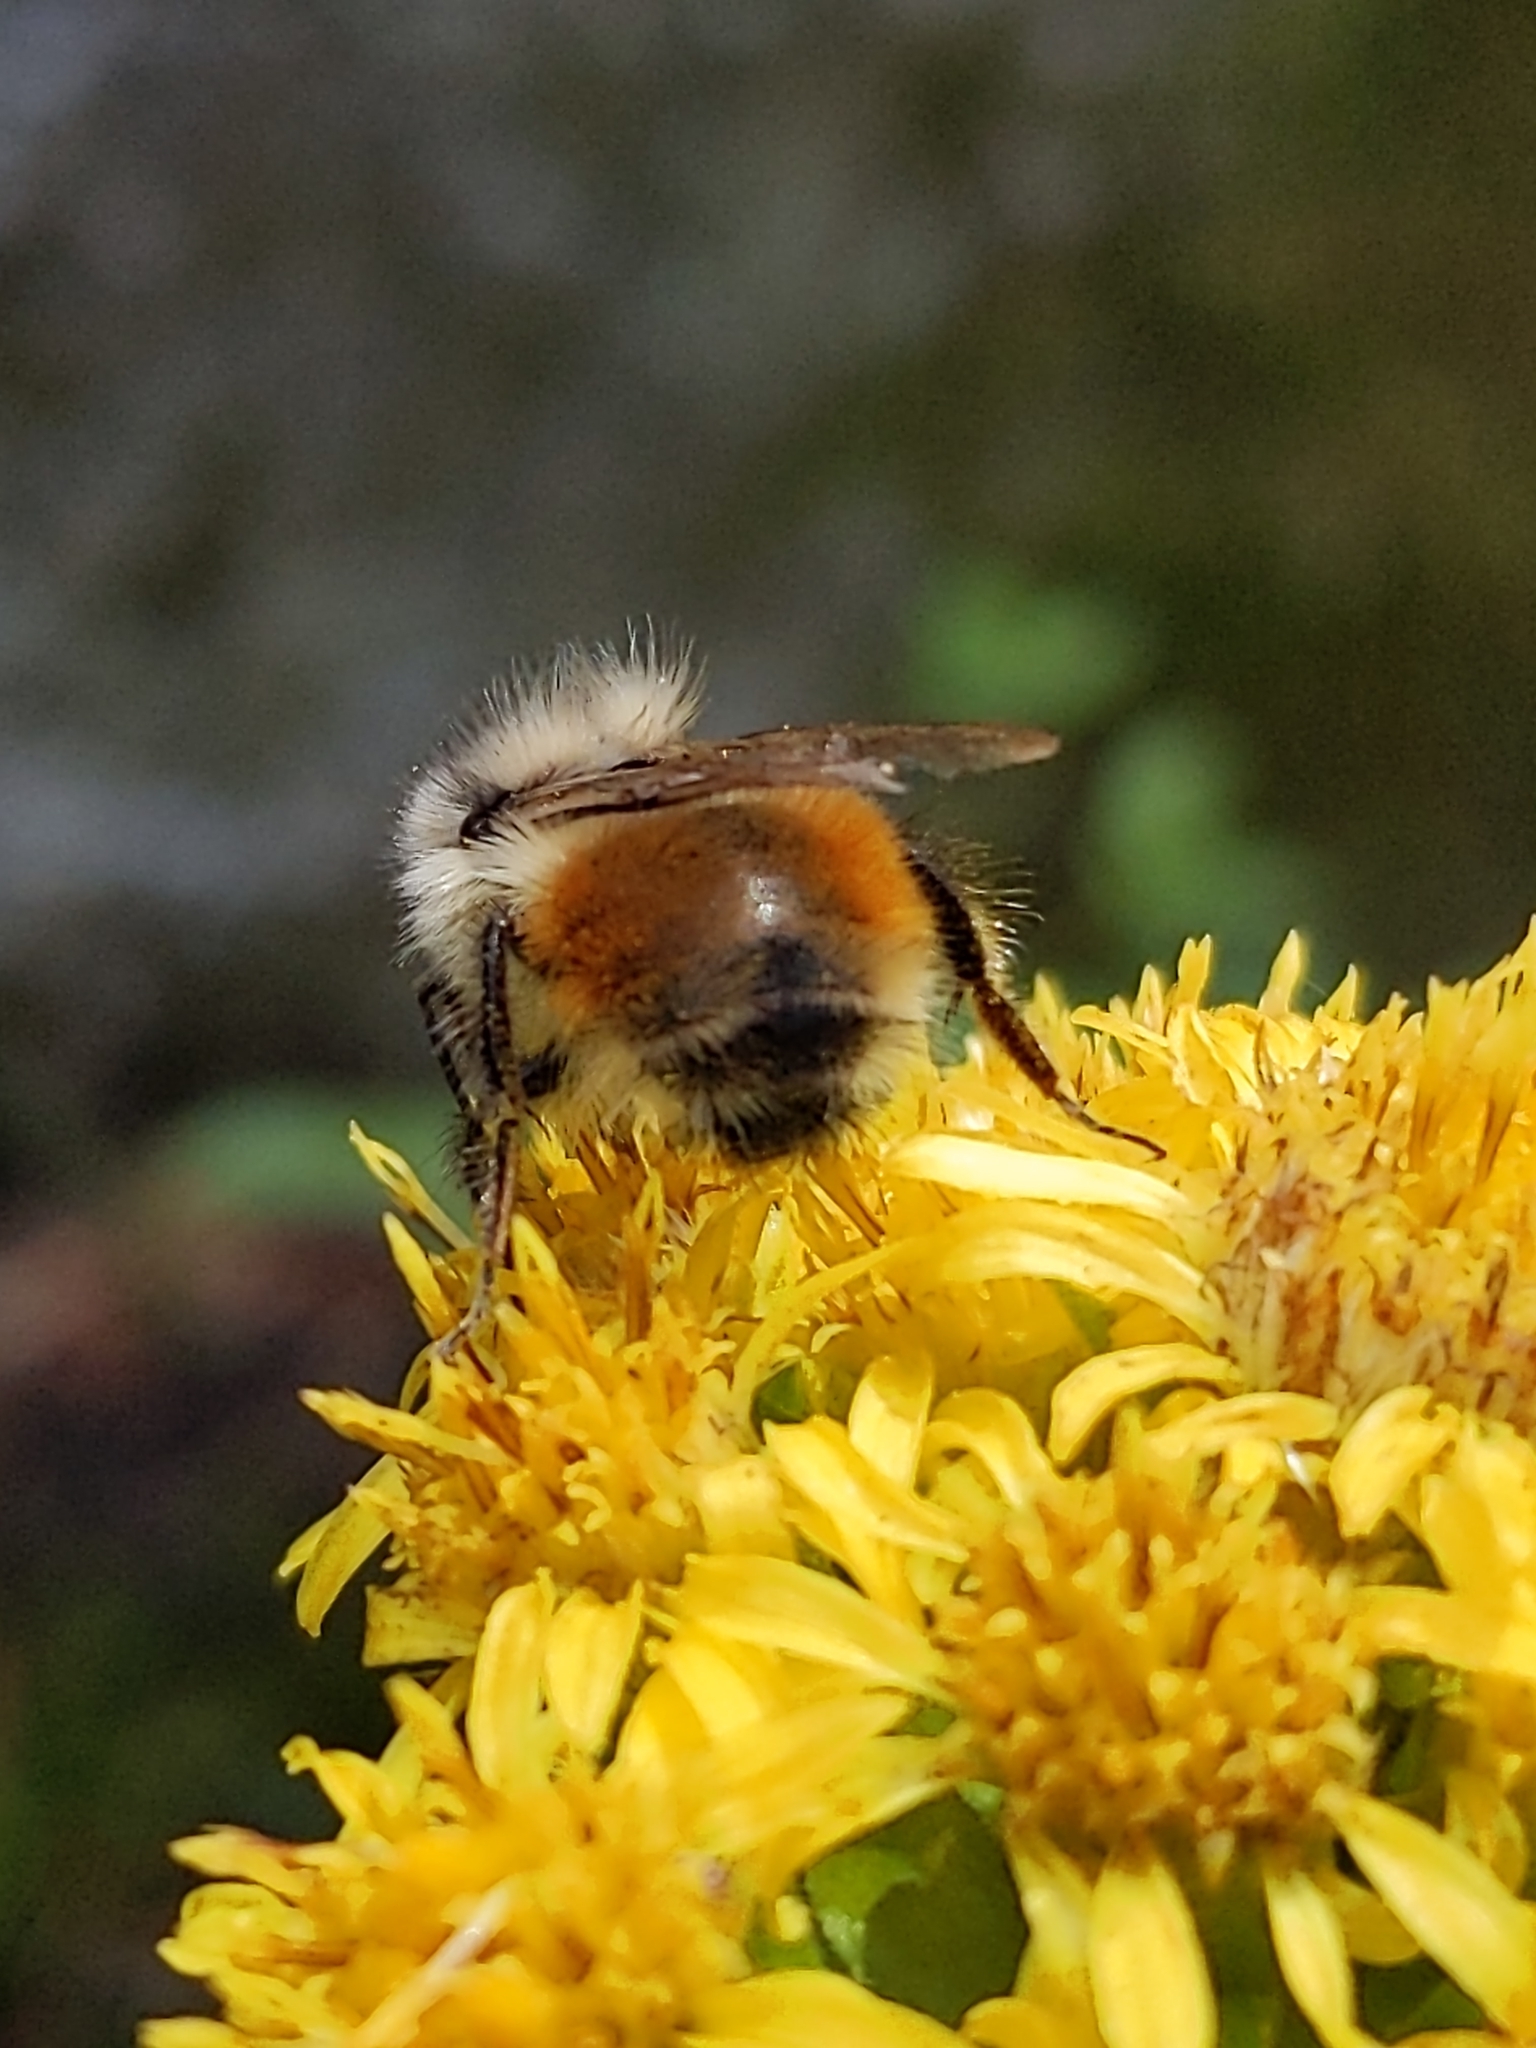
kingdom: Animalia
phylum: Arthropoda
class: Insecta
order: Hymenoptera
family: Apidae
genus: Bombus
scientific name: Bombus melanopygus
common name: Black tail bumble bee
